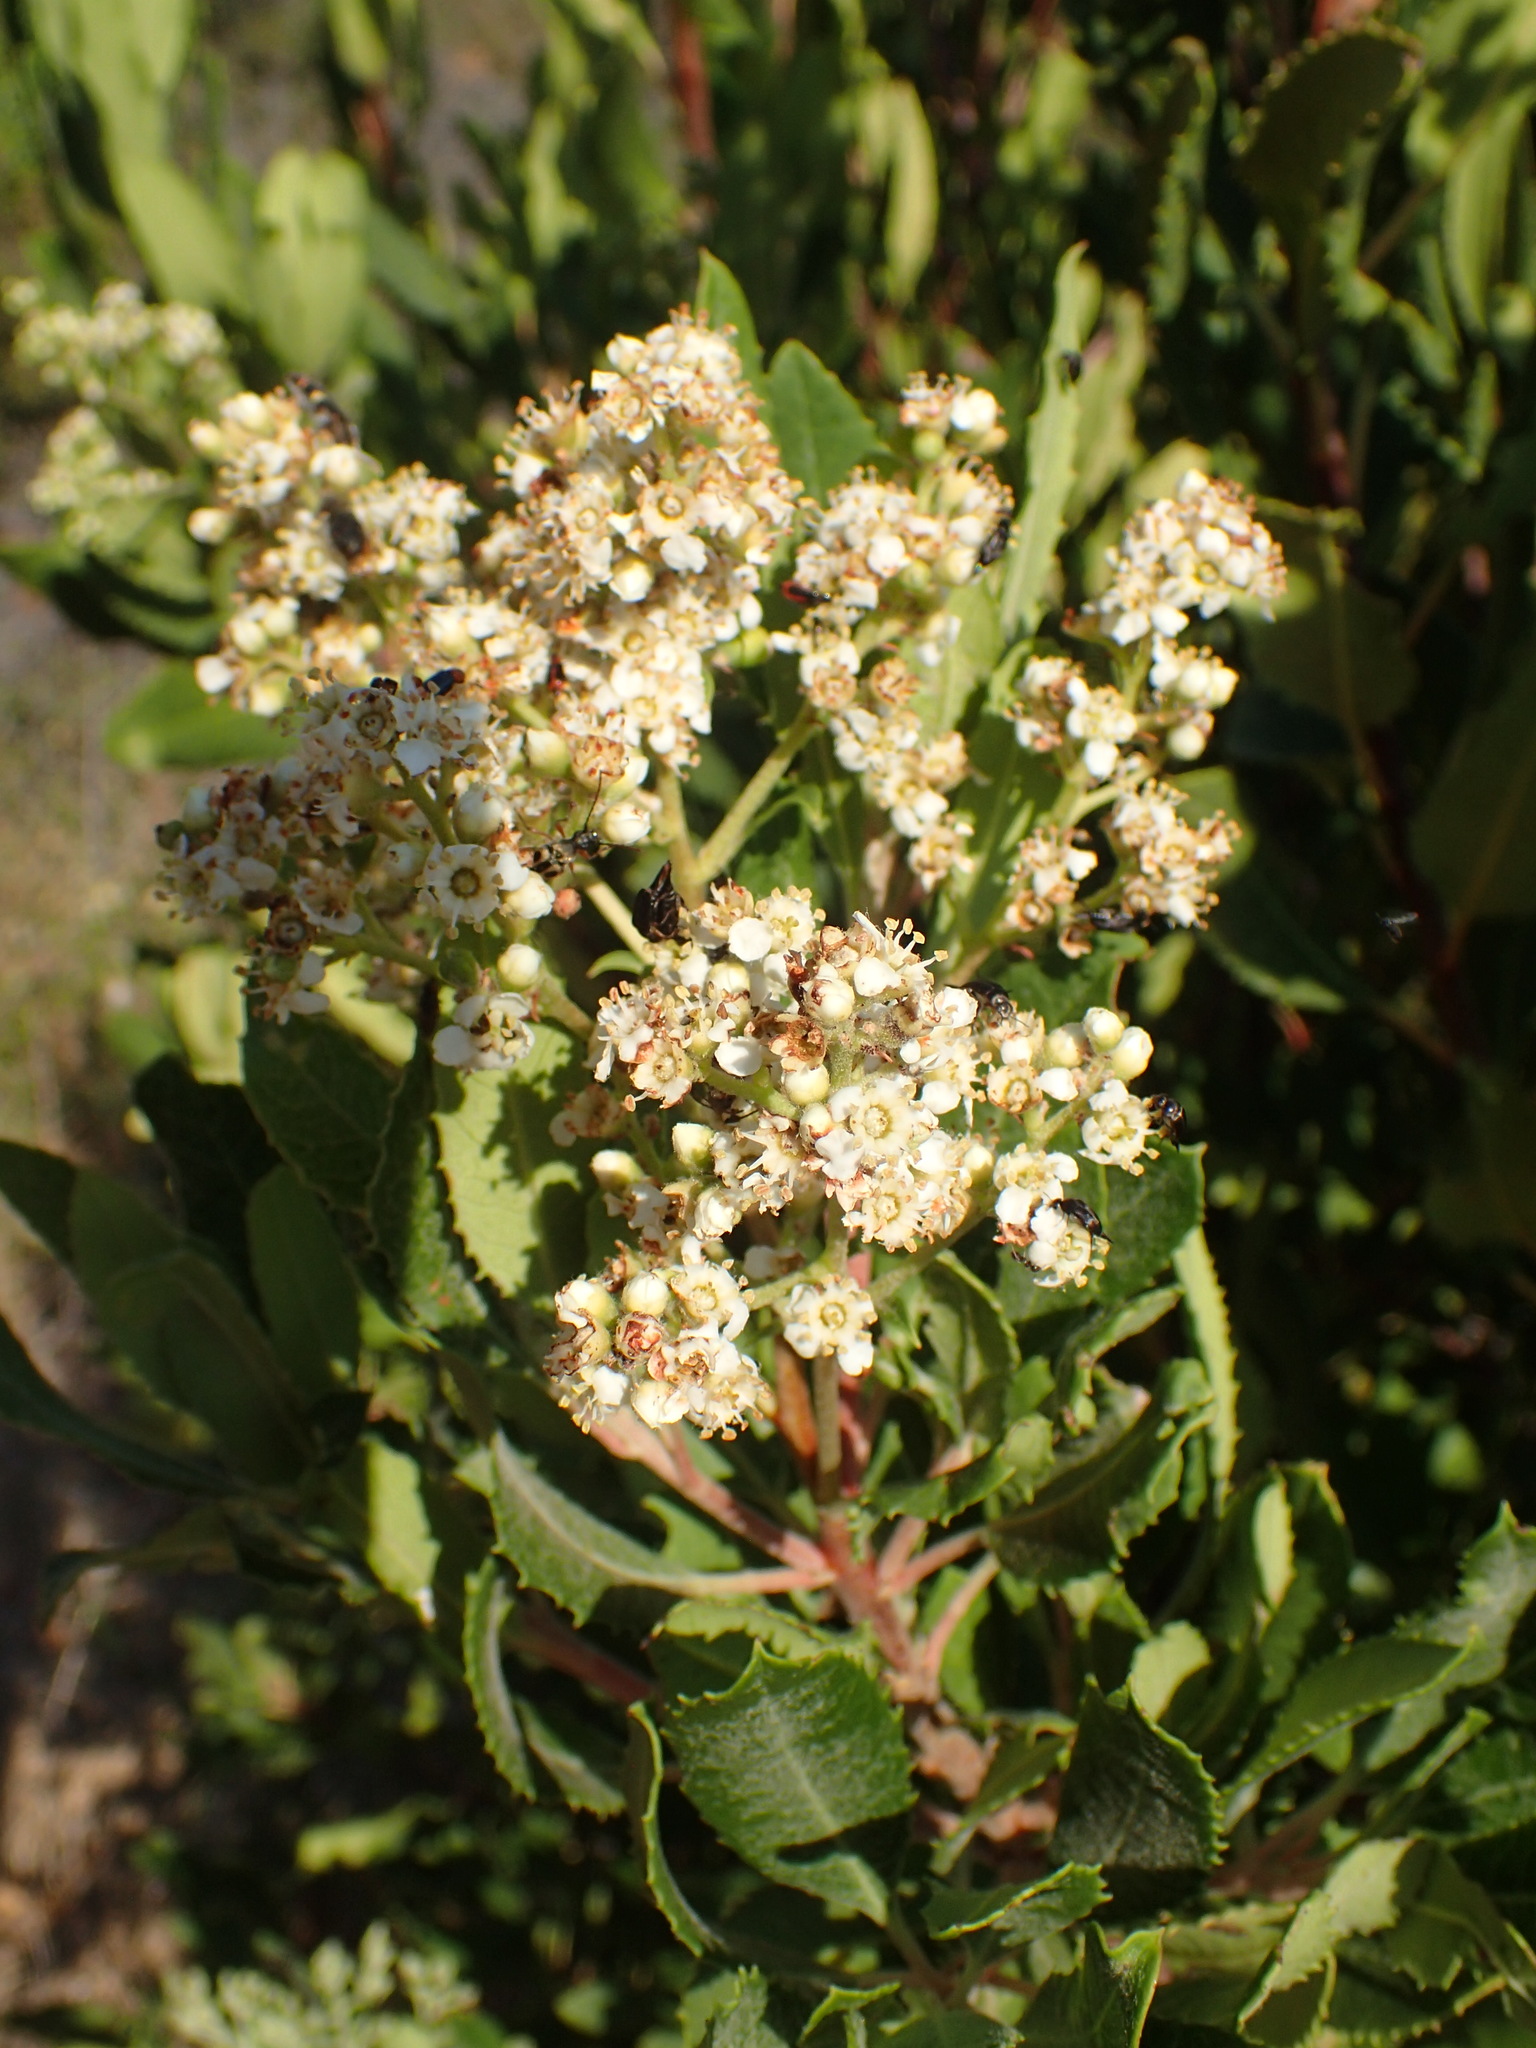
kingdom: Plantae
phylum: Tracheophyta
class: Magnoliopsida
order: Rosales
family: Rosaceae
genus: Heteromeles
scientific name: Heteromeles arbutifolia
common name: California-holly
